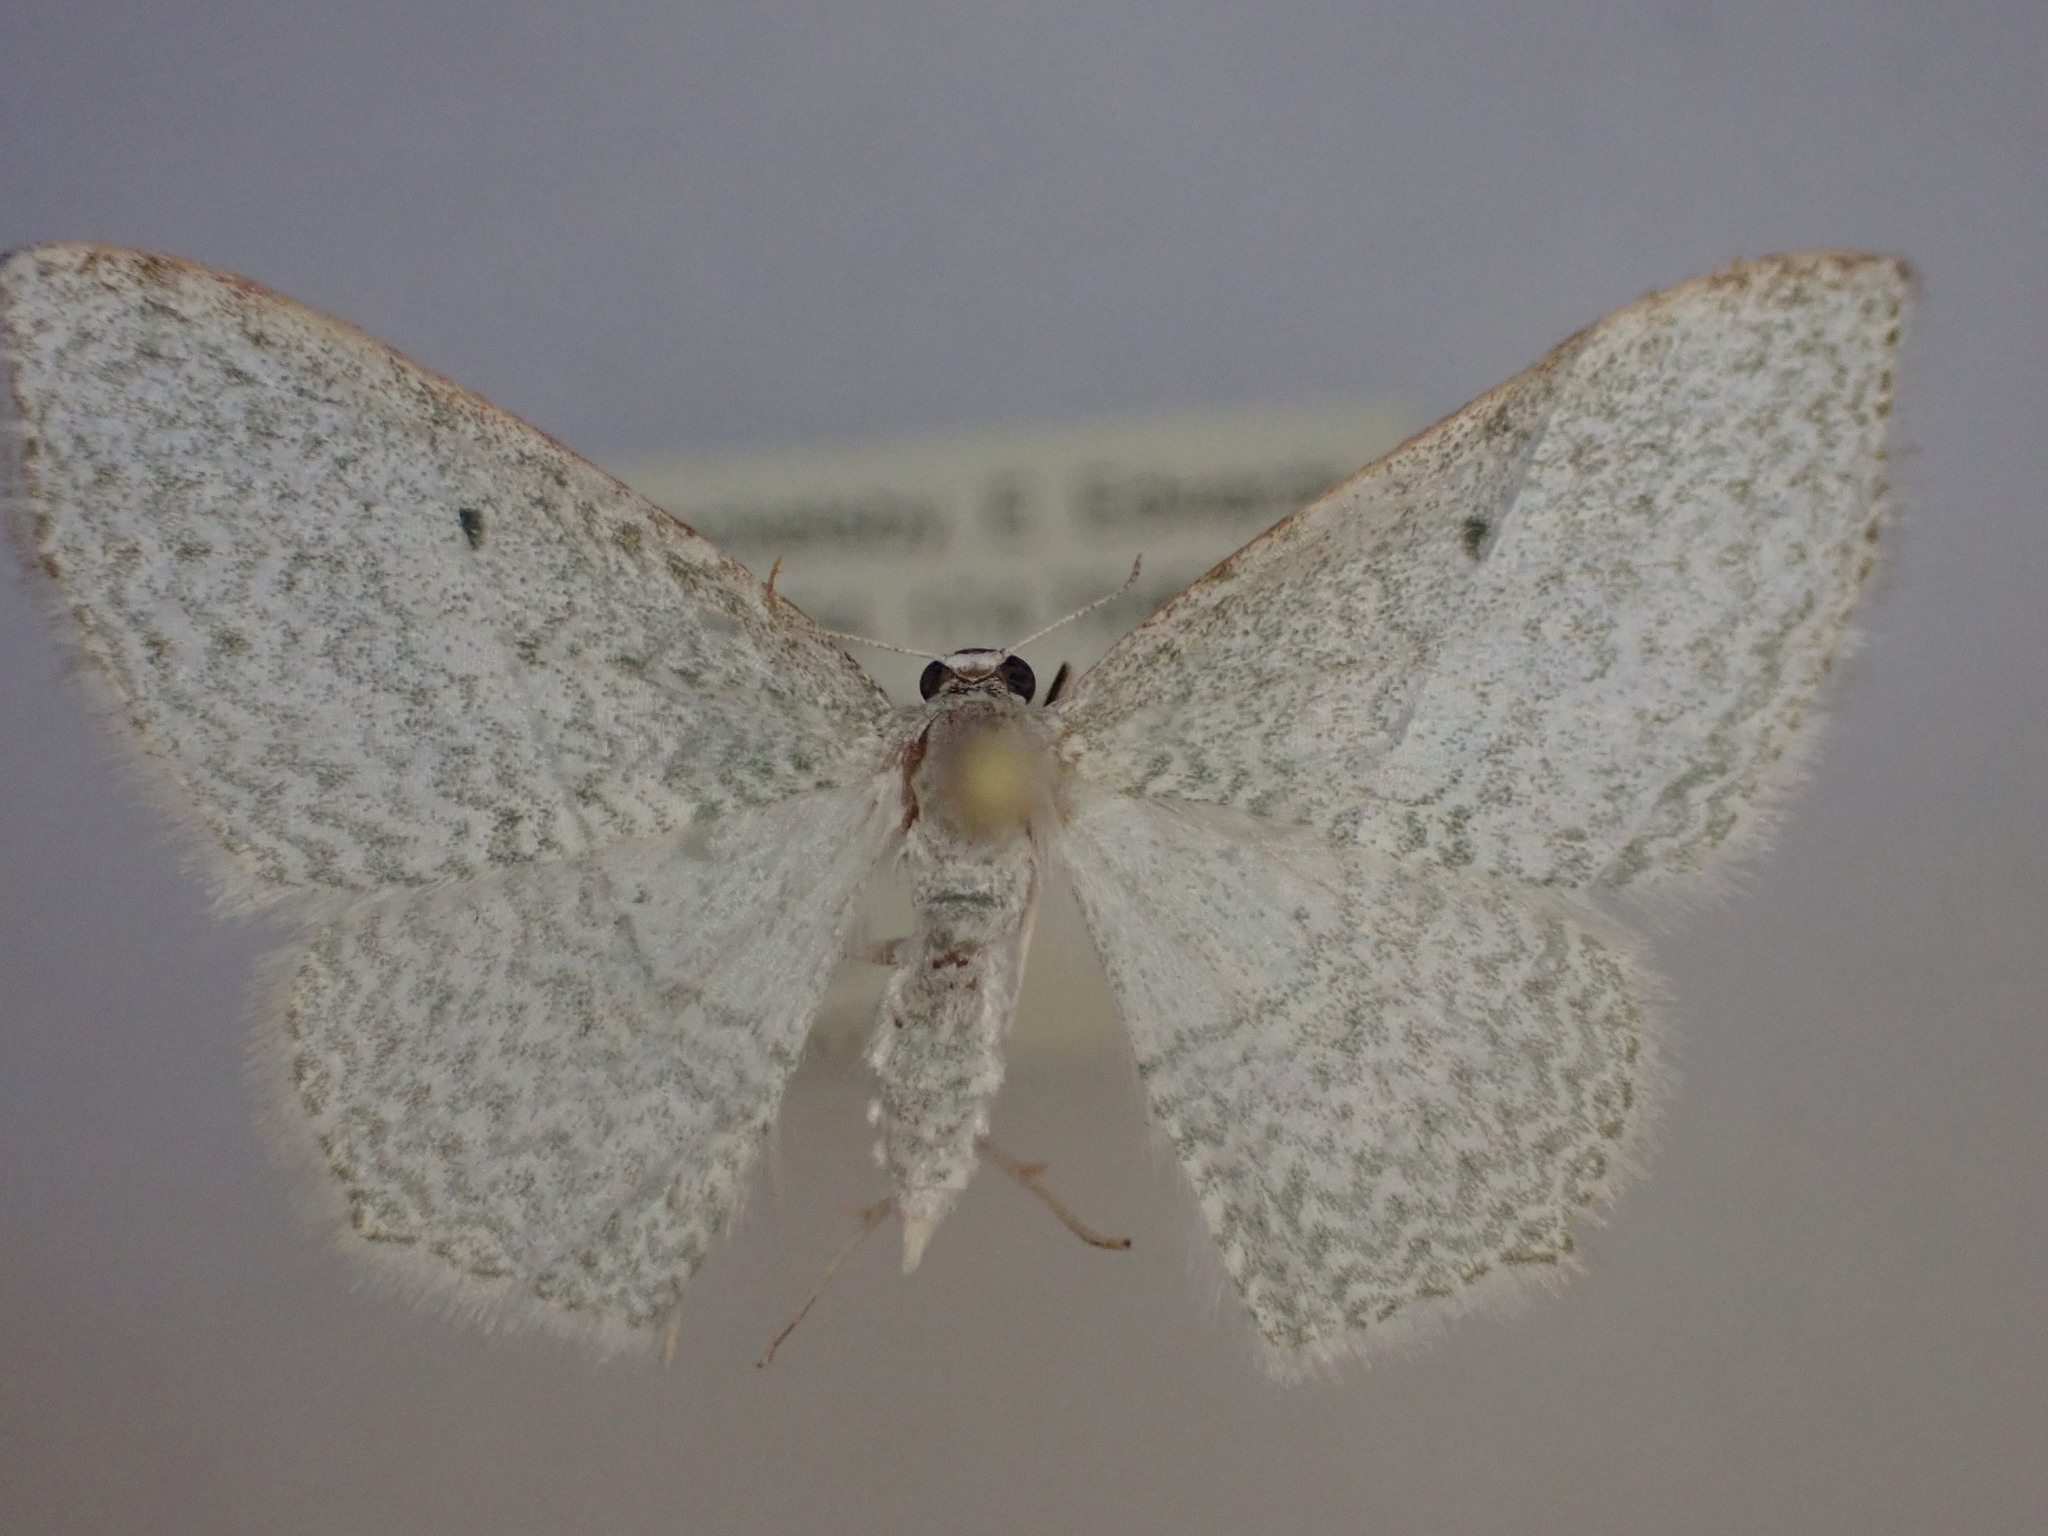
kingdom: Animalia
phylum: Arthropoda
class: Insecta
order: Lepidoptera
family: Geometridae
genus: Poecilasthena
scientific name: Poecilasthena pulchraria
